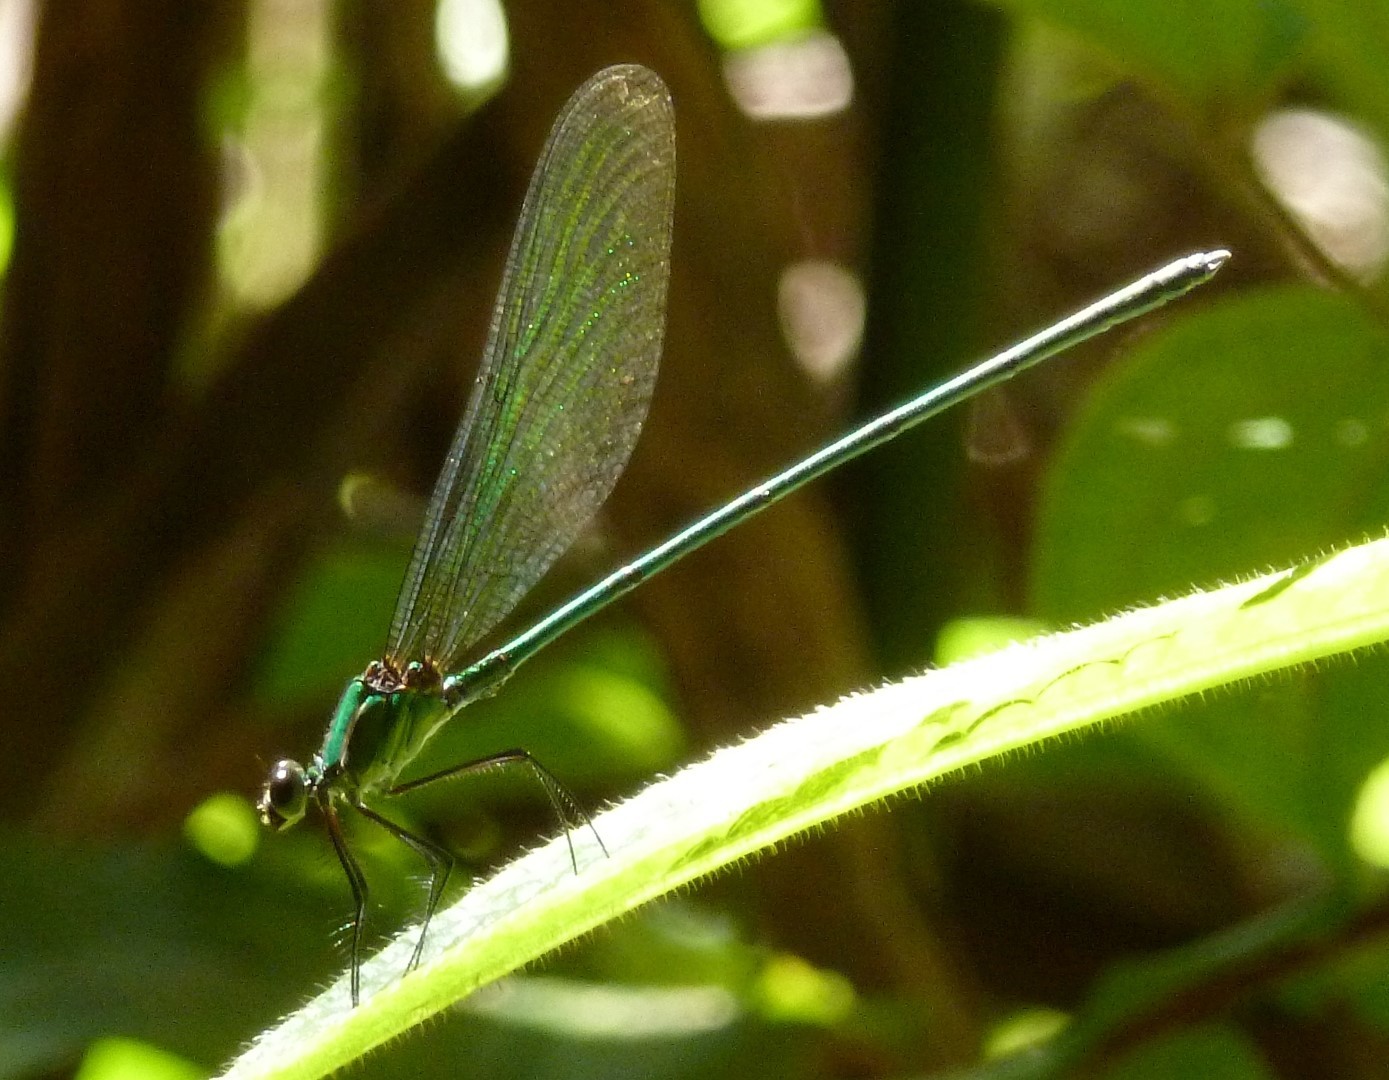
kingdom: Animalia
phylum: Arthropoda
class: Insecta
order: Odonata
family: Calopterygidae
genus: Phaon
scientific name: Phaon rasoherinae
